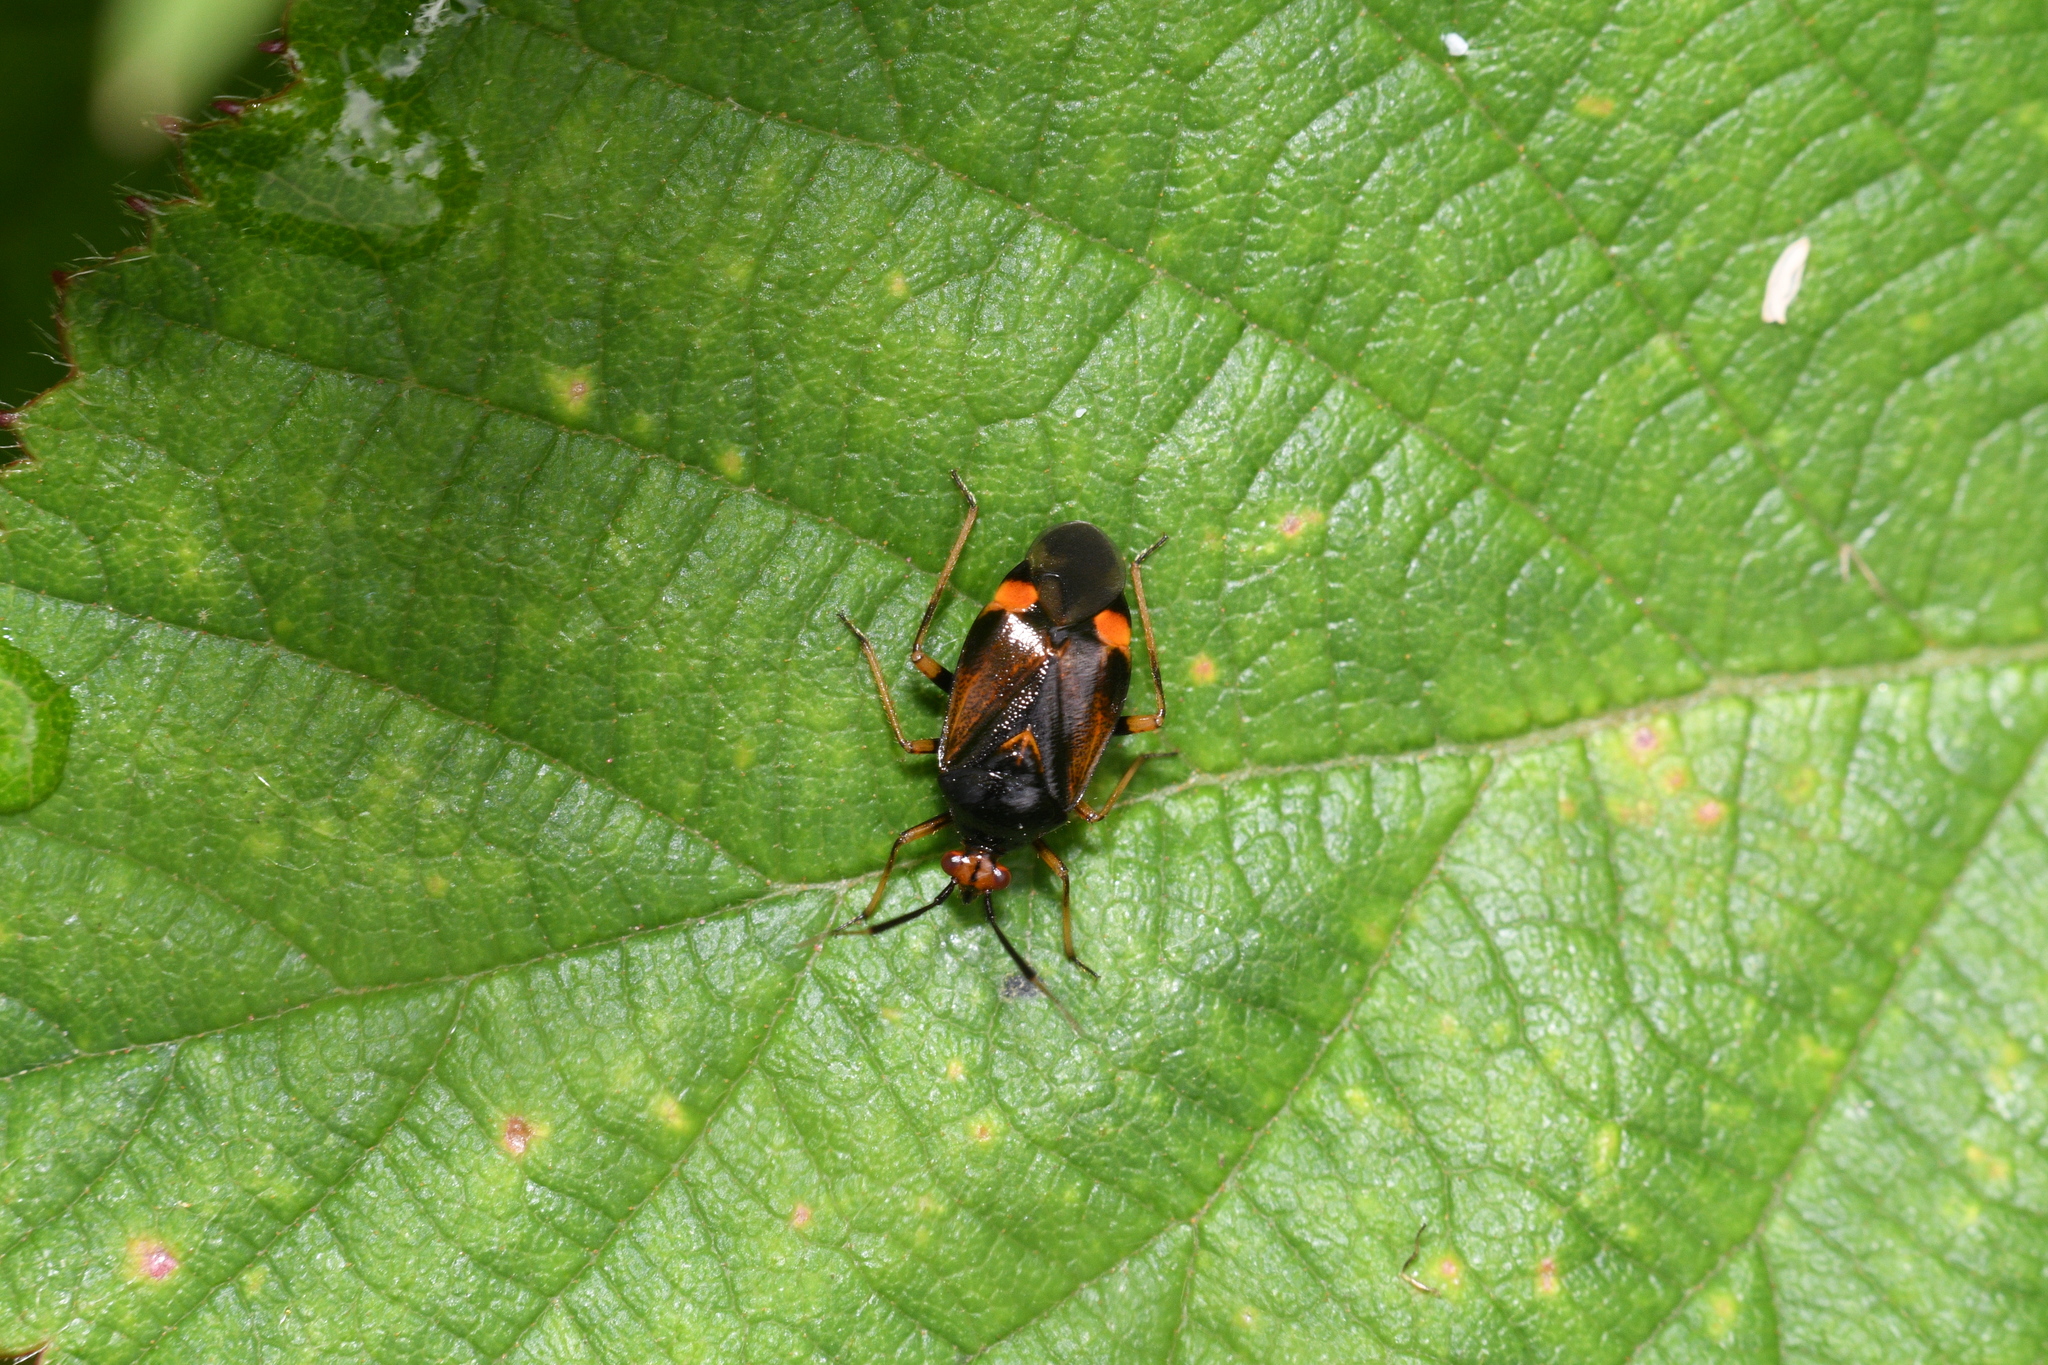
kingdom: Animalia
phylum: Arthropoda
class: Insecta
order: Hemiptera
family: Miridae
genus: Deraeocoris
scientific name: Deraeocoris ruber
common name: Plant bug
